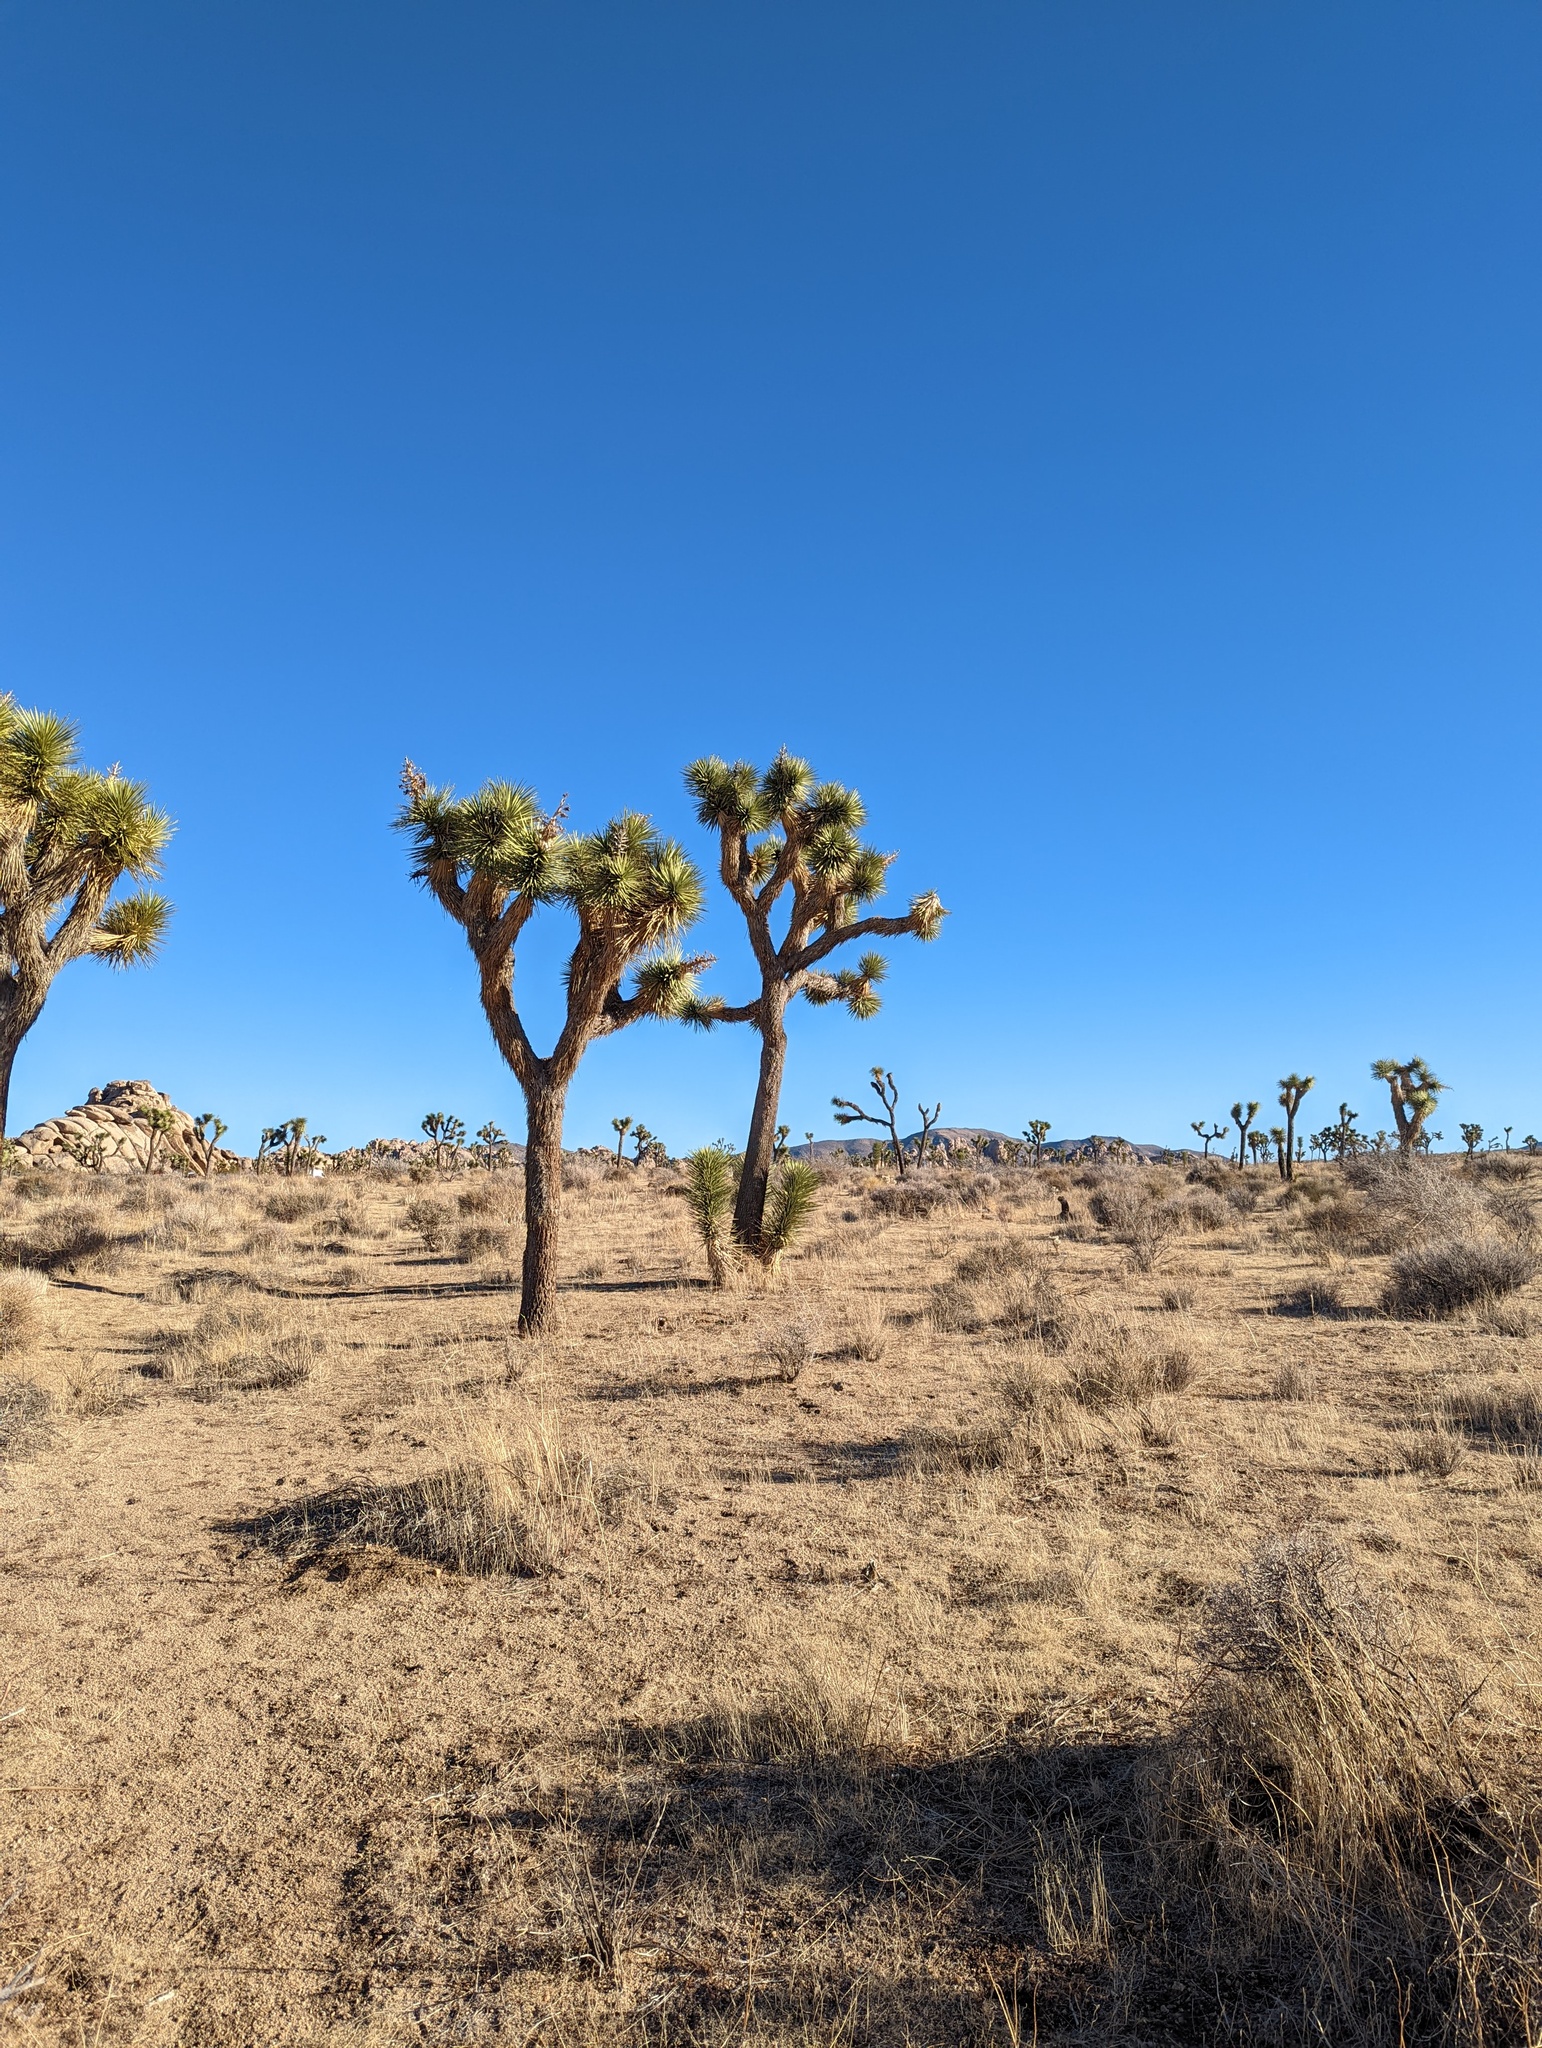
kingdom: Plantae
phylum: Tracheophyta
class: Liliopsida
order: Asparagales
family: Asparagaceae
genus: Yucca
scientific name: Yucca brevifolia
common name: Joshua tree
